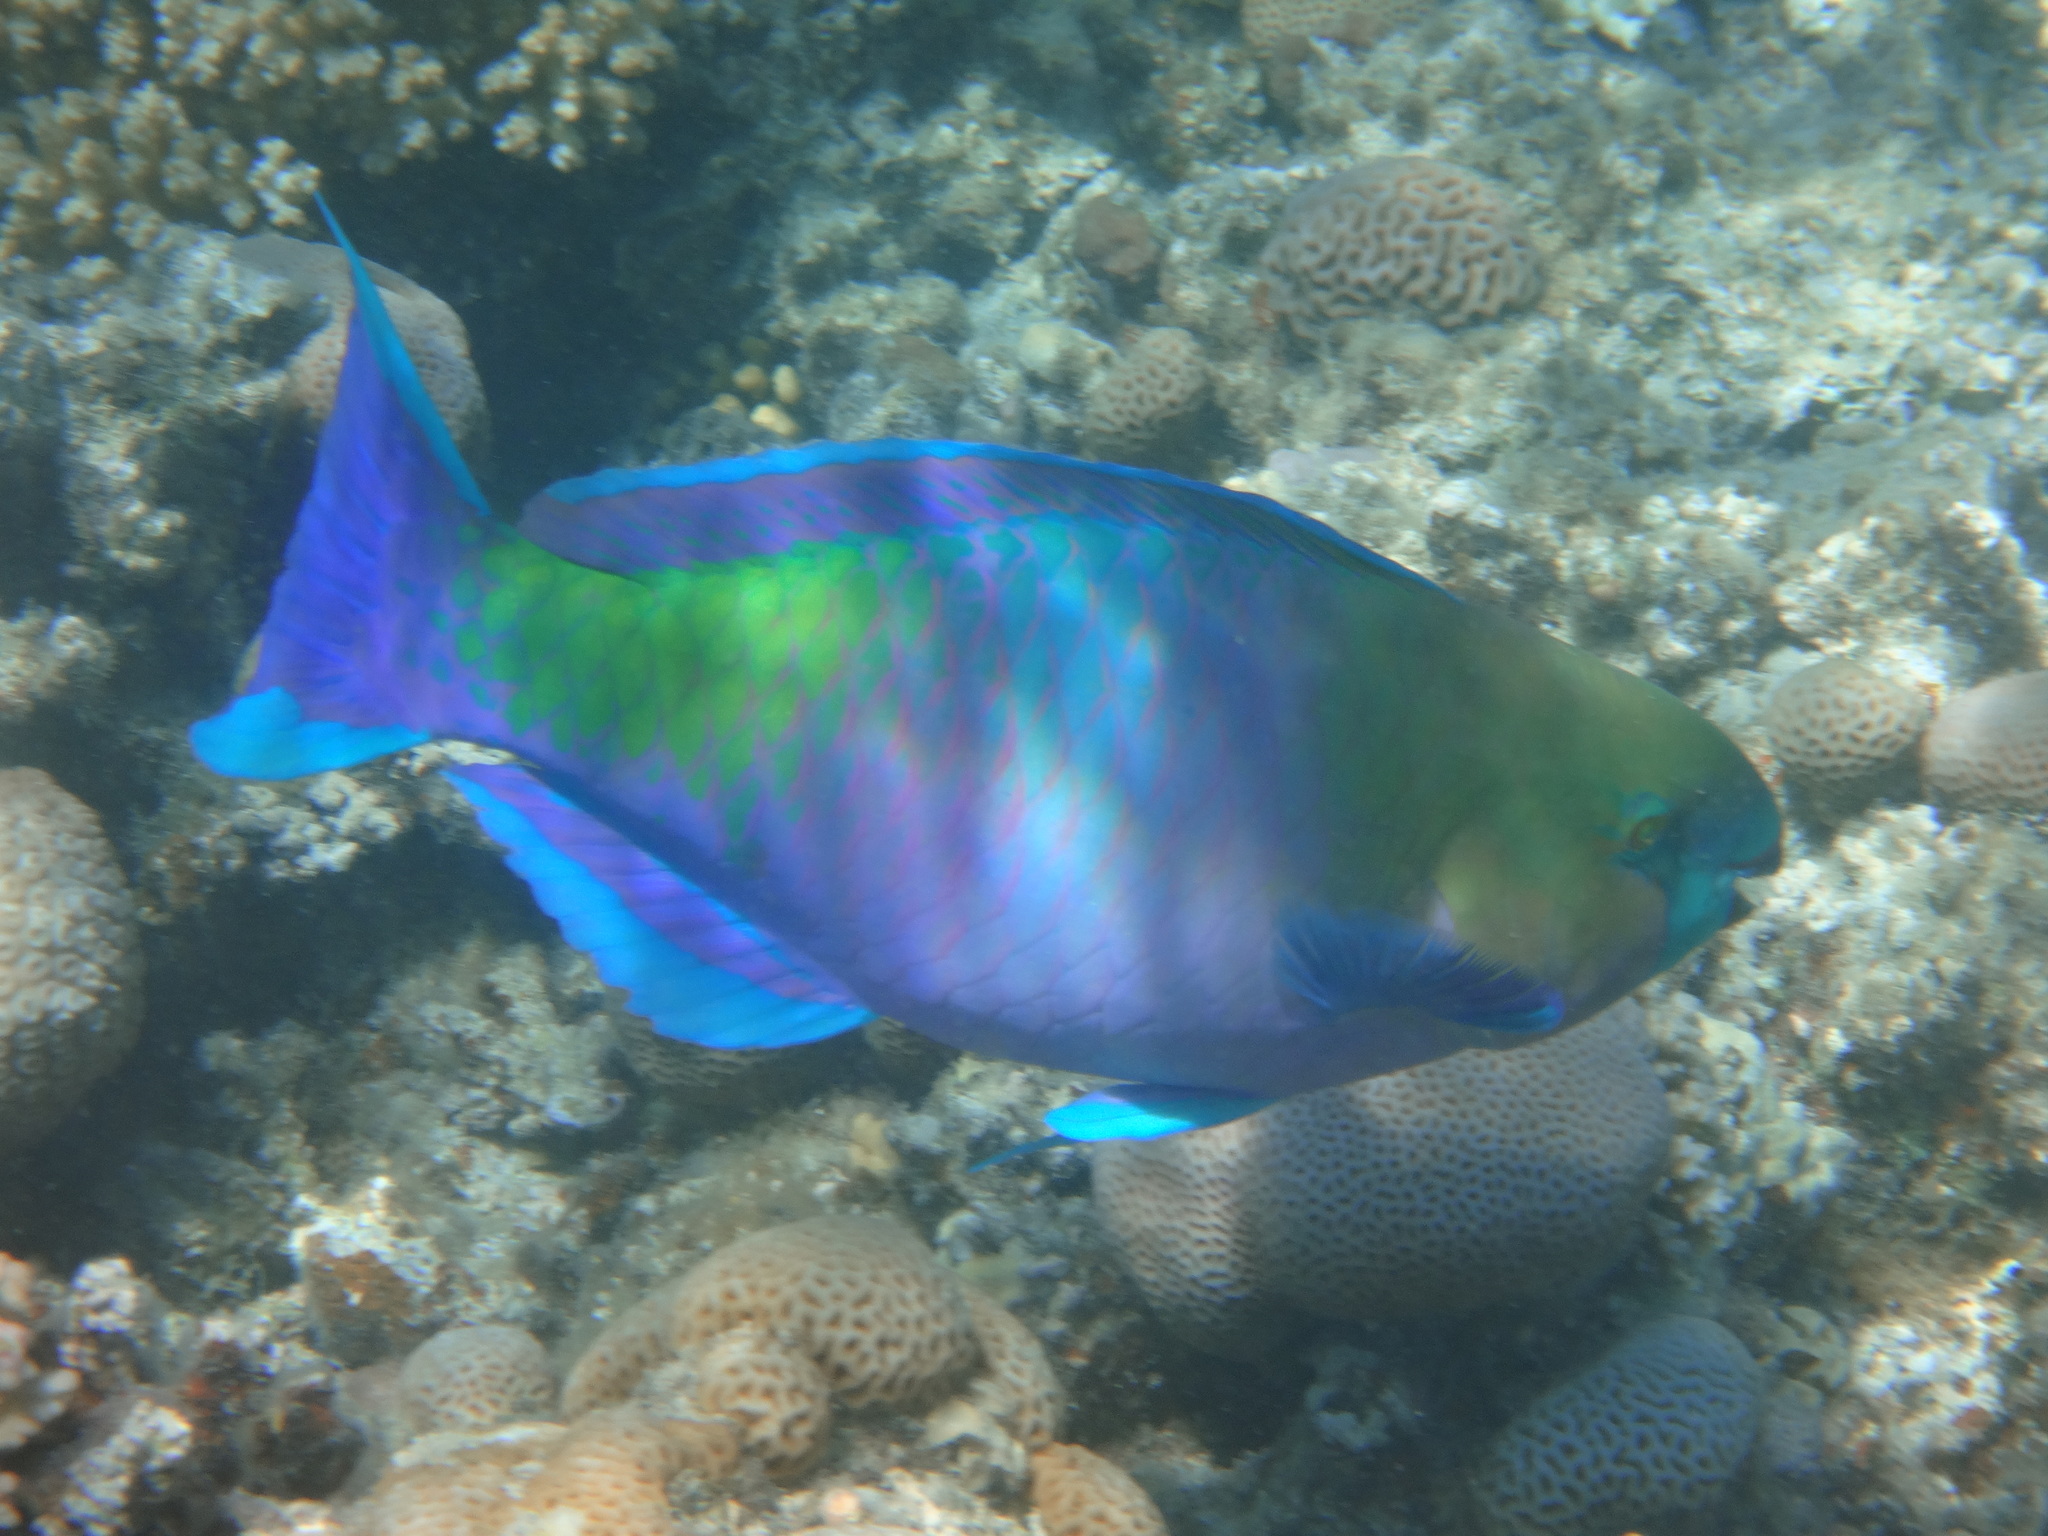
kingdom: Animalia
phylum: Chordata
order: Perciformes
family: Scaridae
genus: Scarus
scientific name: Scarus ferrugineus
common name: Rusty parrotfish
